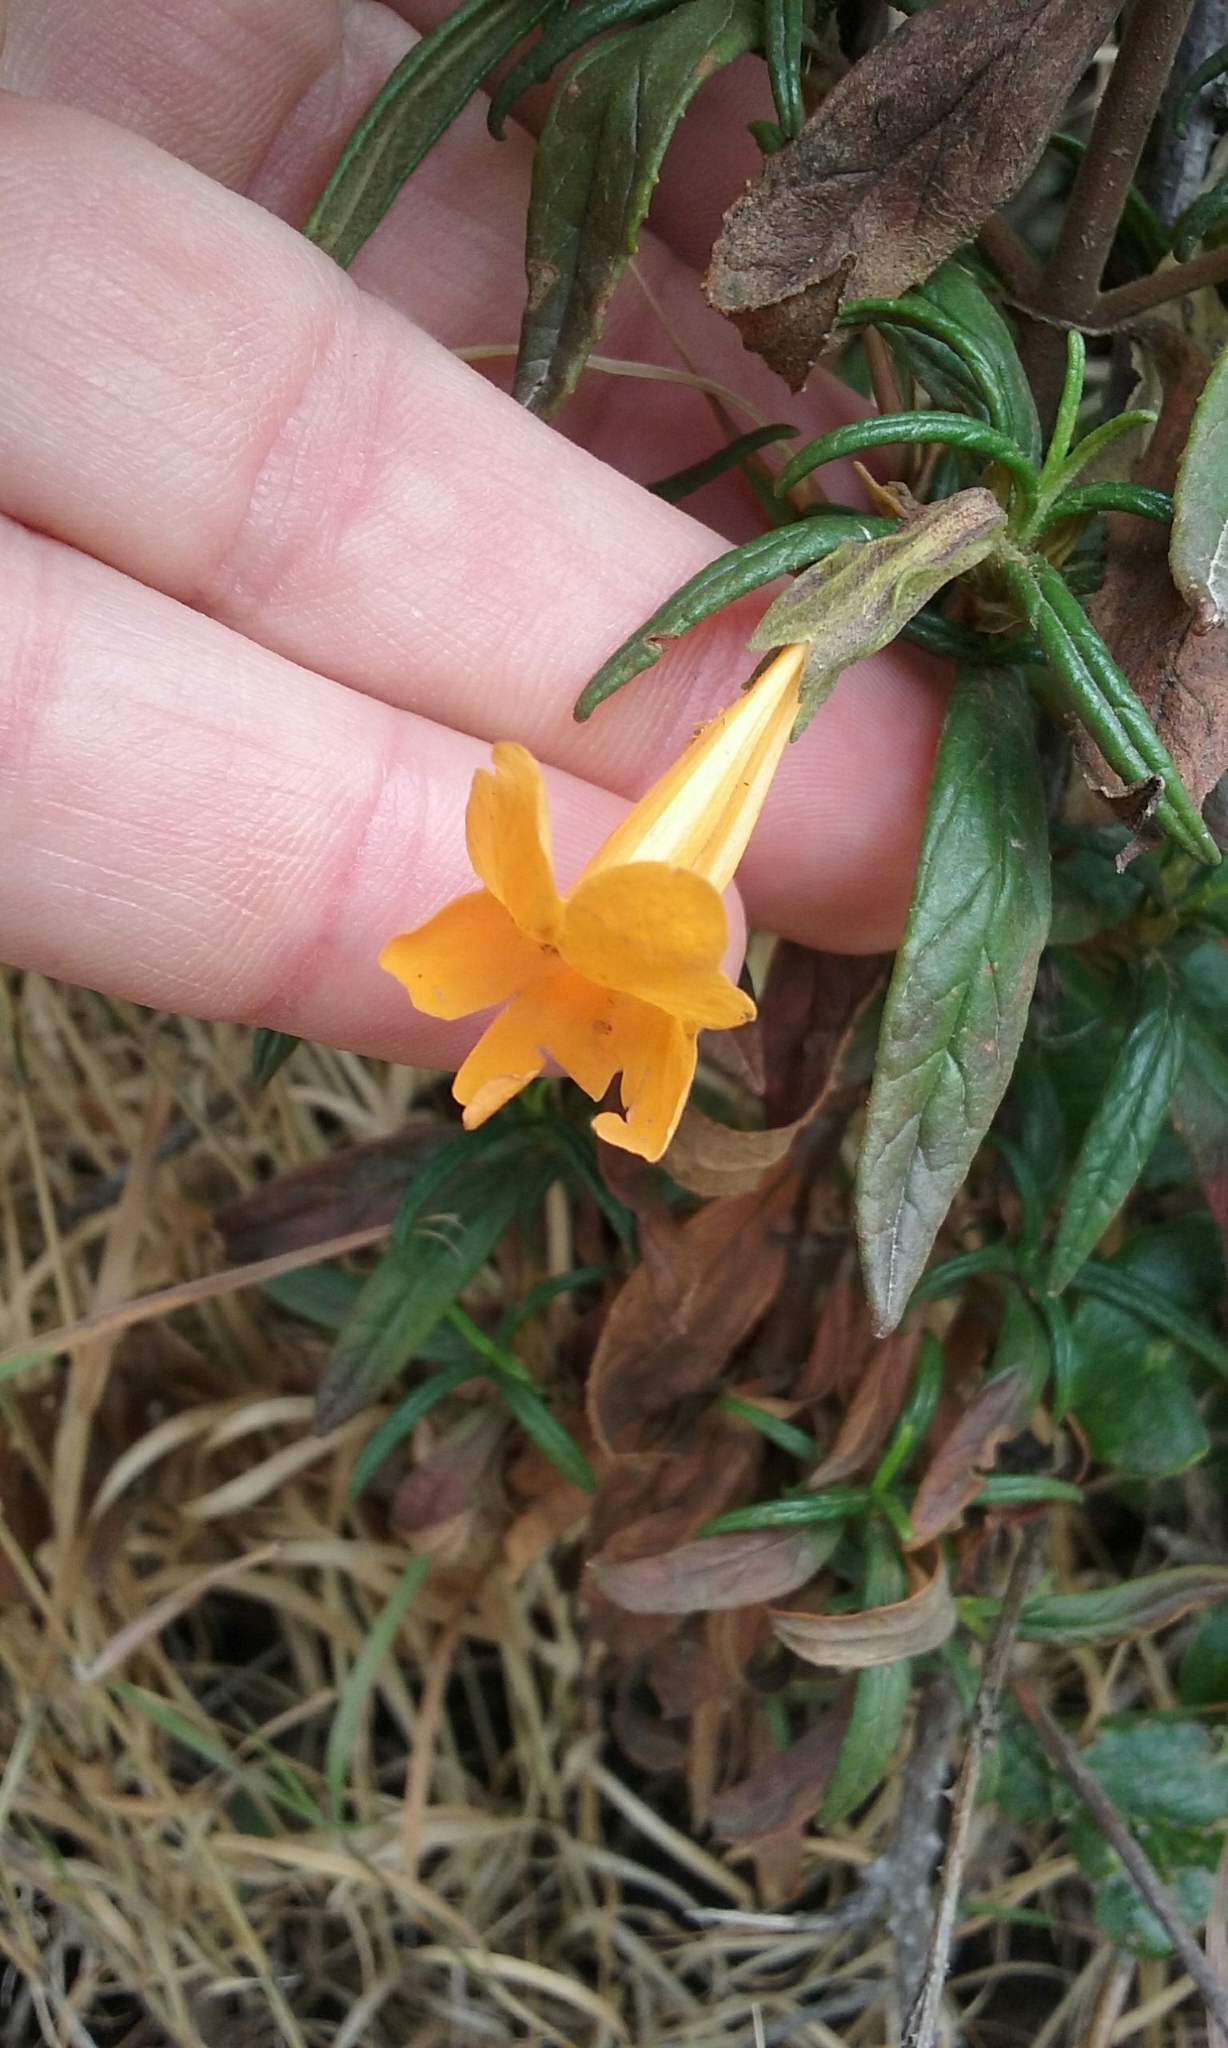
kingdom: Plantae
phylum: Tracheophyta
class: Magnoliopsida
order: Lamiales
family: Phrymaceae
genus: Diplacus
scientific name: Diplacus aurantiacus
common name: Bush monkey-flower
